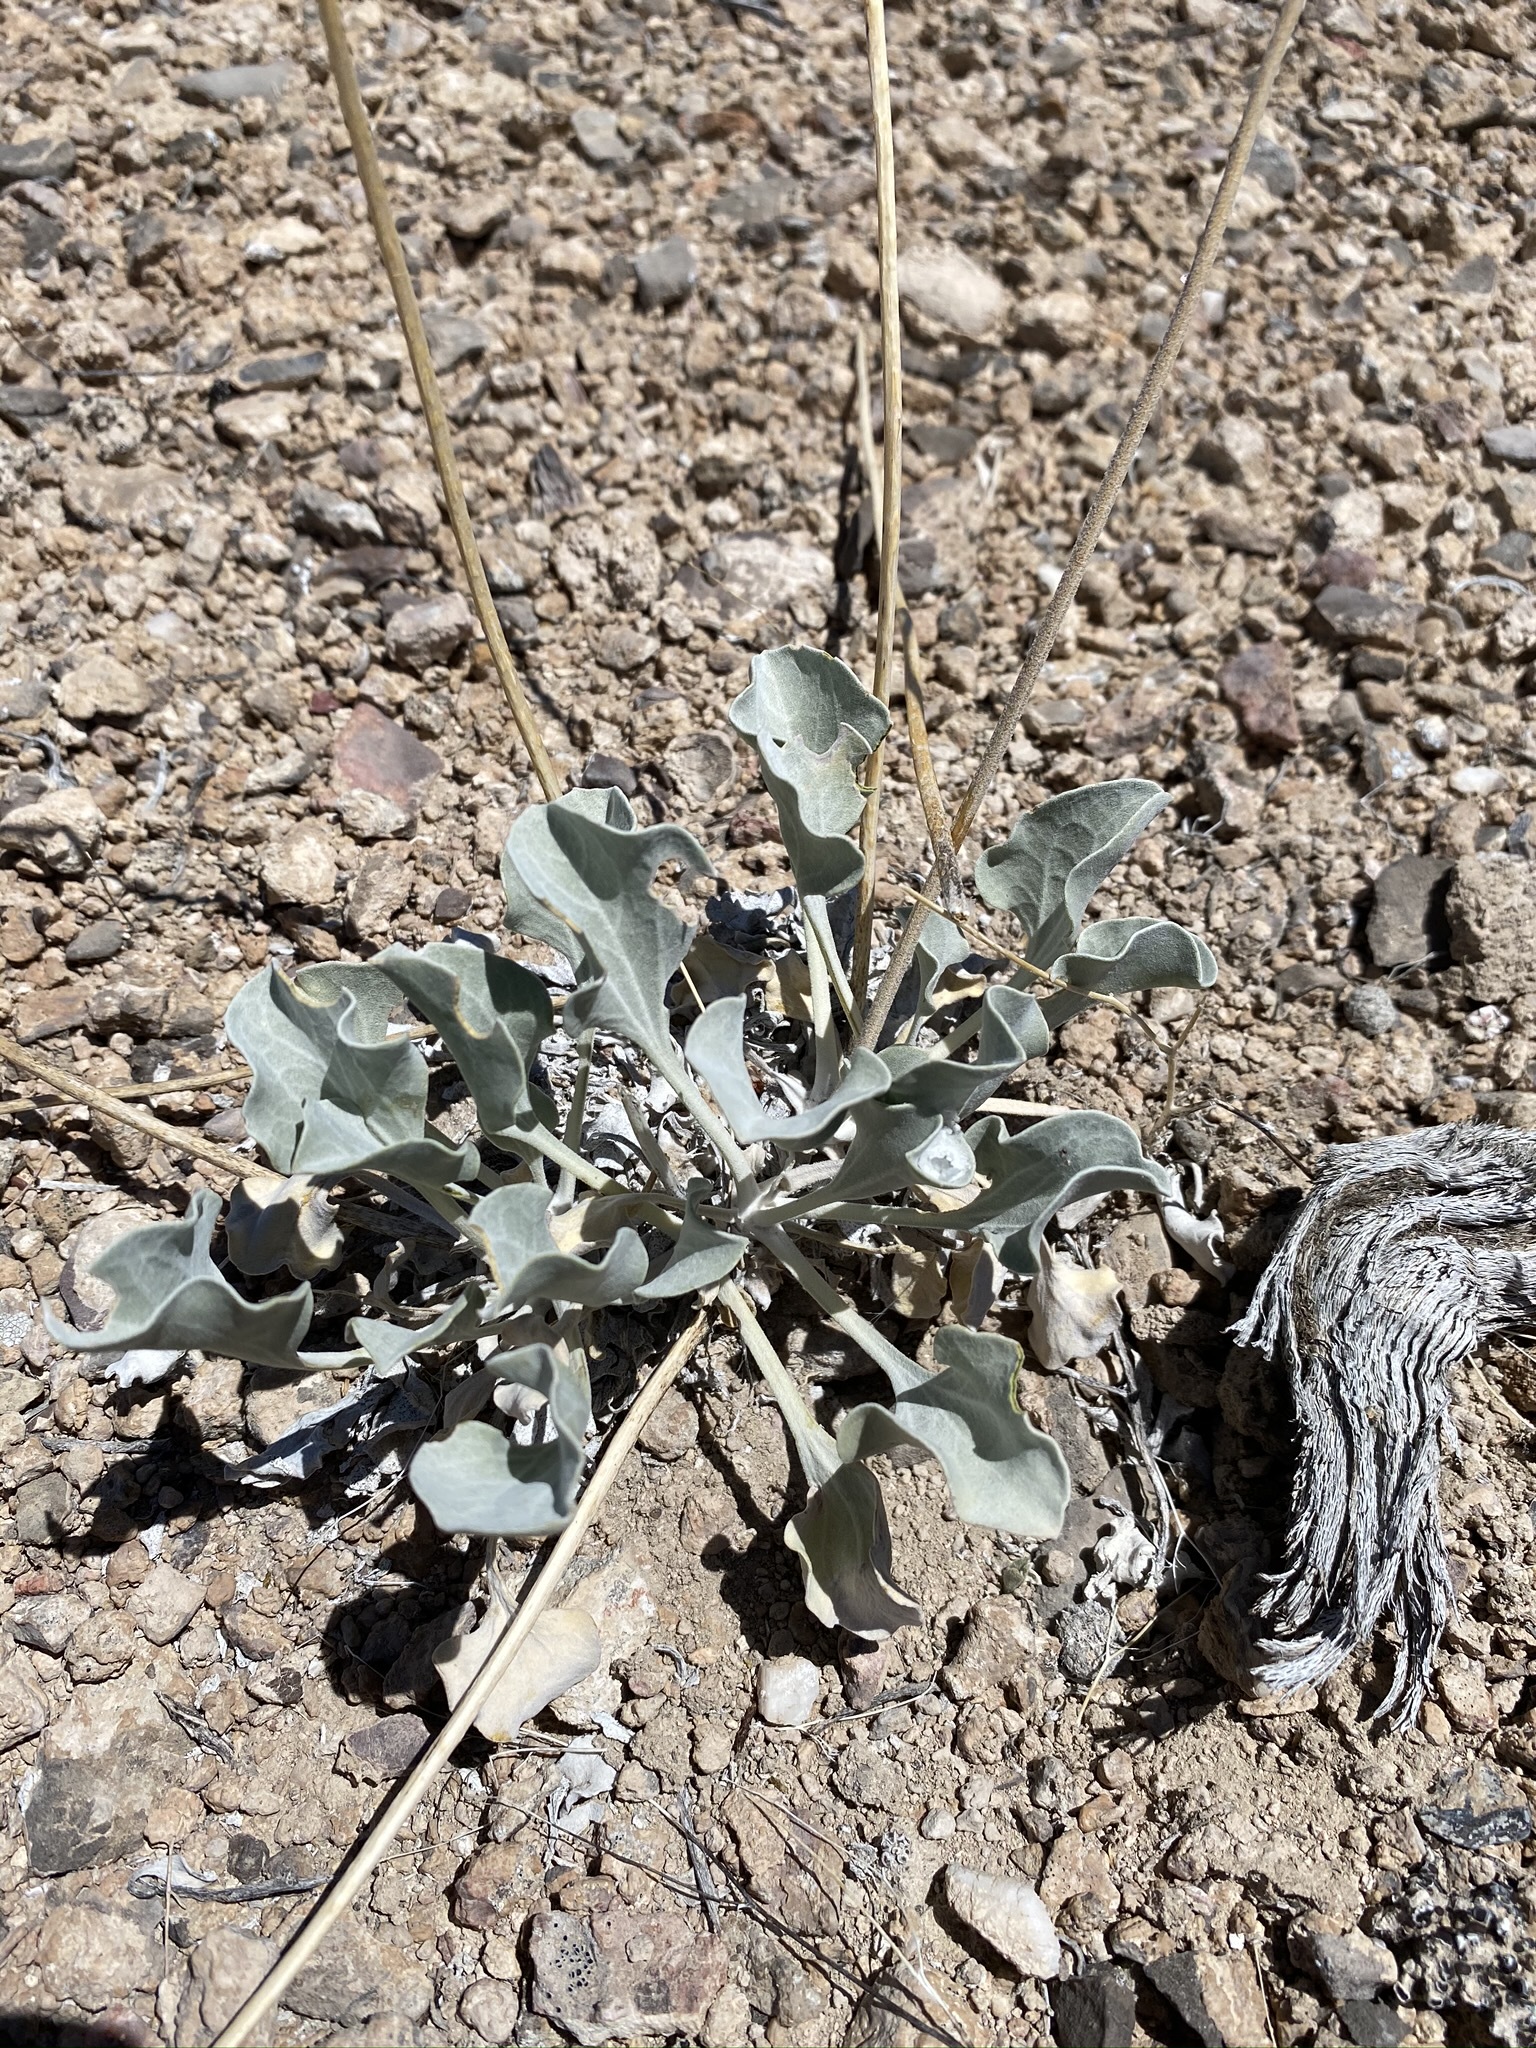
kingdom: Plantae
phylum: Tracheophyta
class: Magnoliopsida
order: Asterales
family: Asteraceae
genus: Enceliopsis
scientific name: Enceliopsis nudicaulis
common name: Naked-stem daisy
